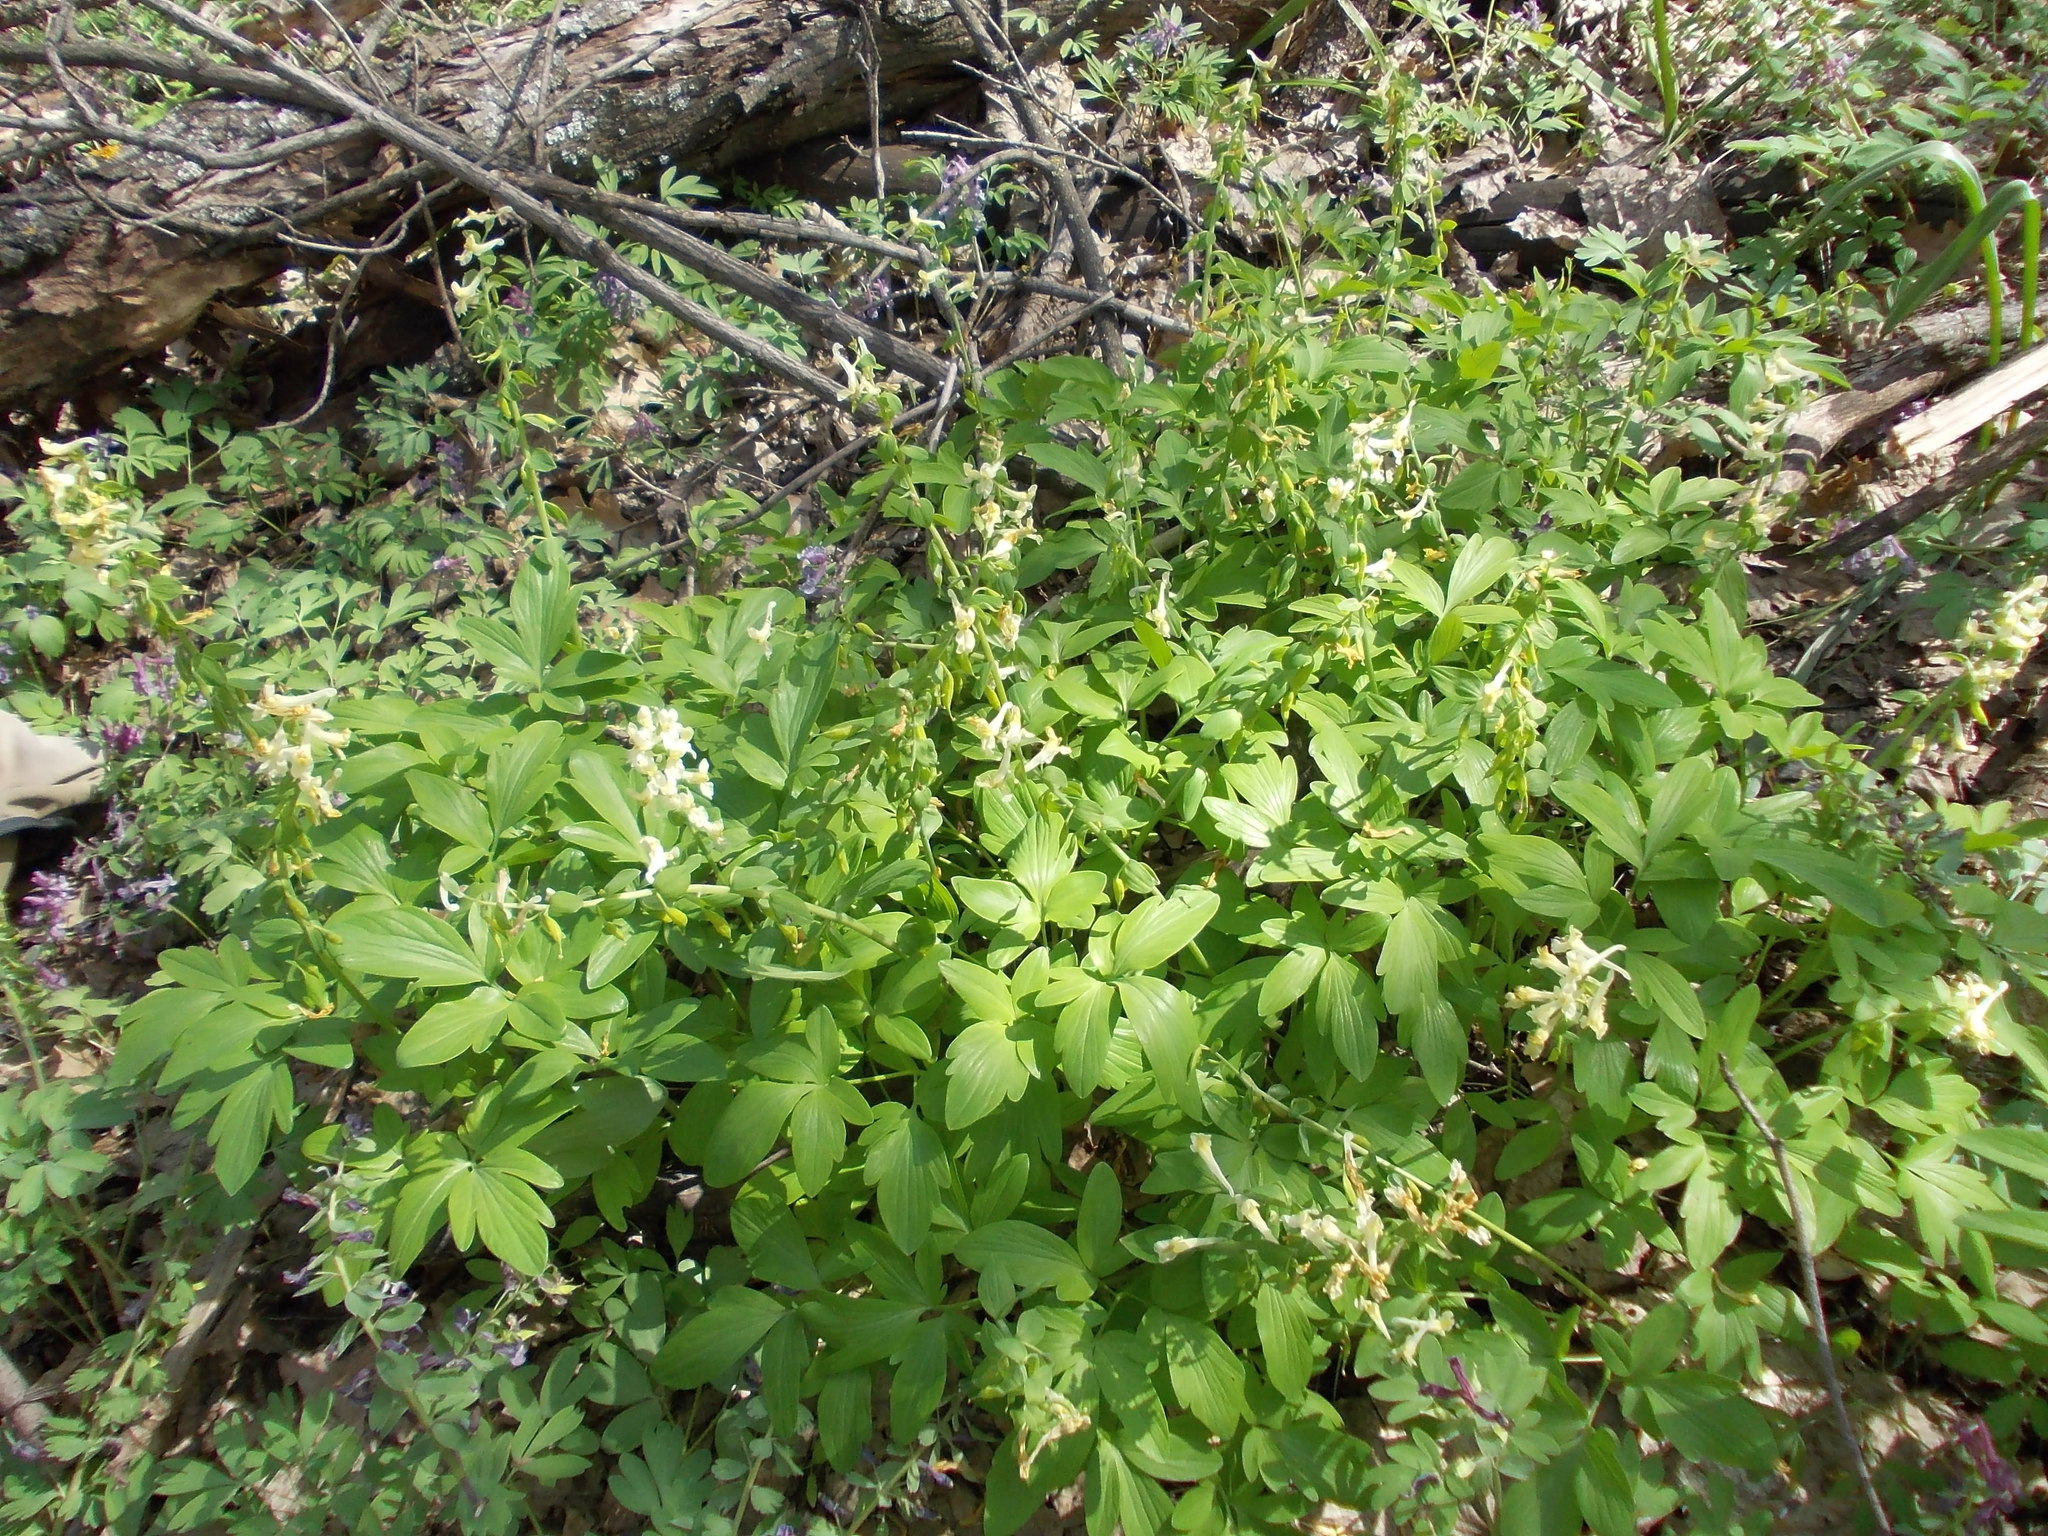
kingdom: Plantae
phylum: Tracheophyta
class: Magnoliopsida
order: Ranunculales
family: Papaveraceae
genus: Corydalis
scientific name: Corydalis cava
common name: Hollowroot
